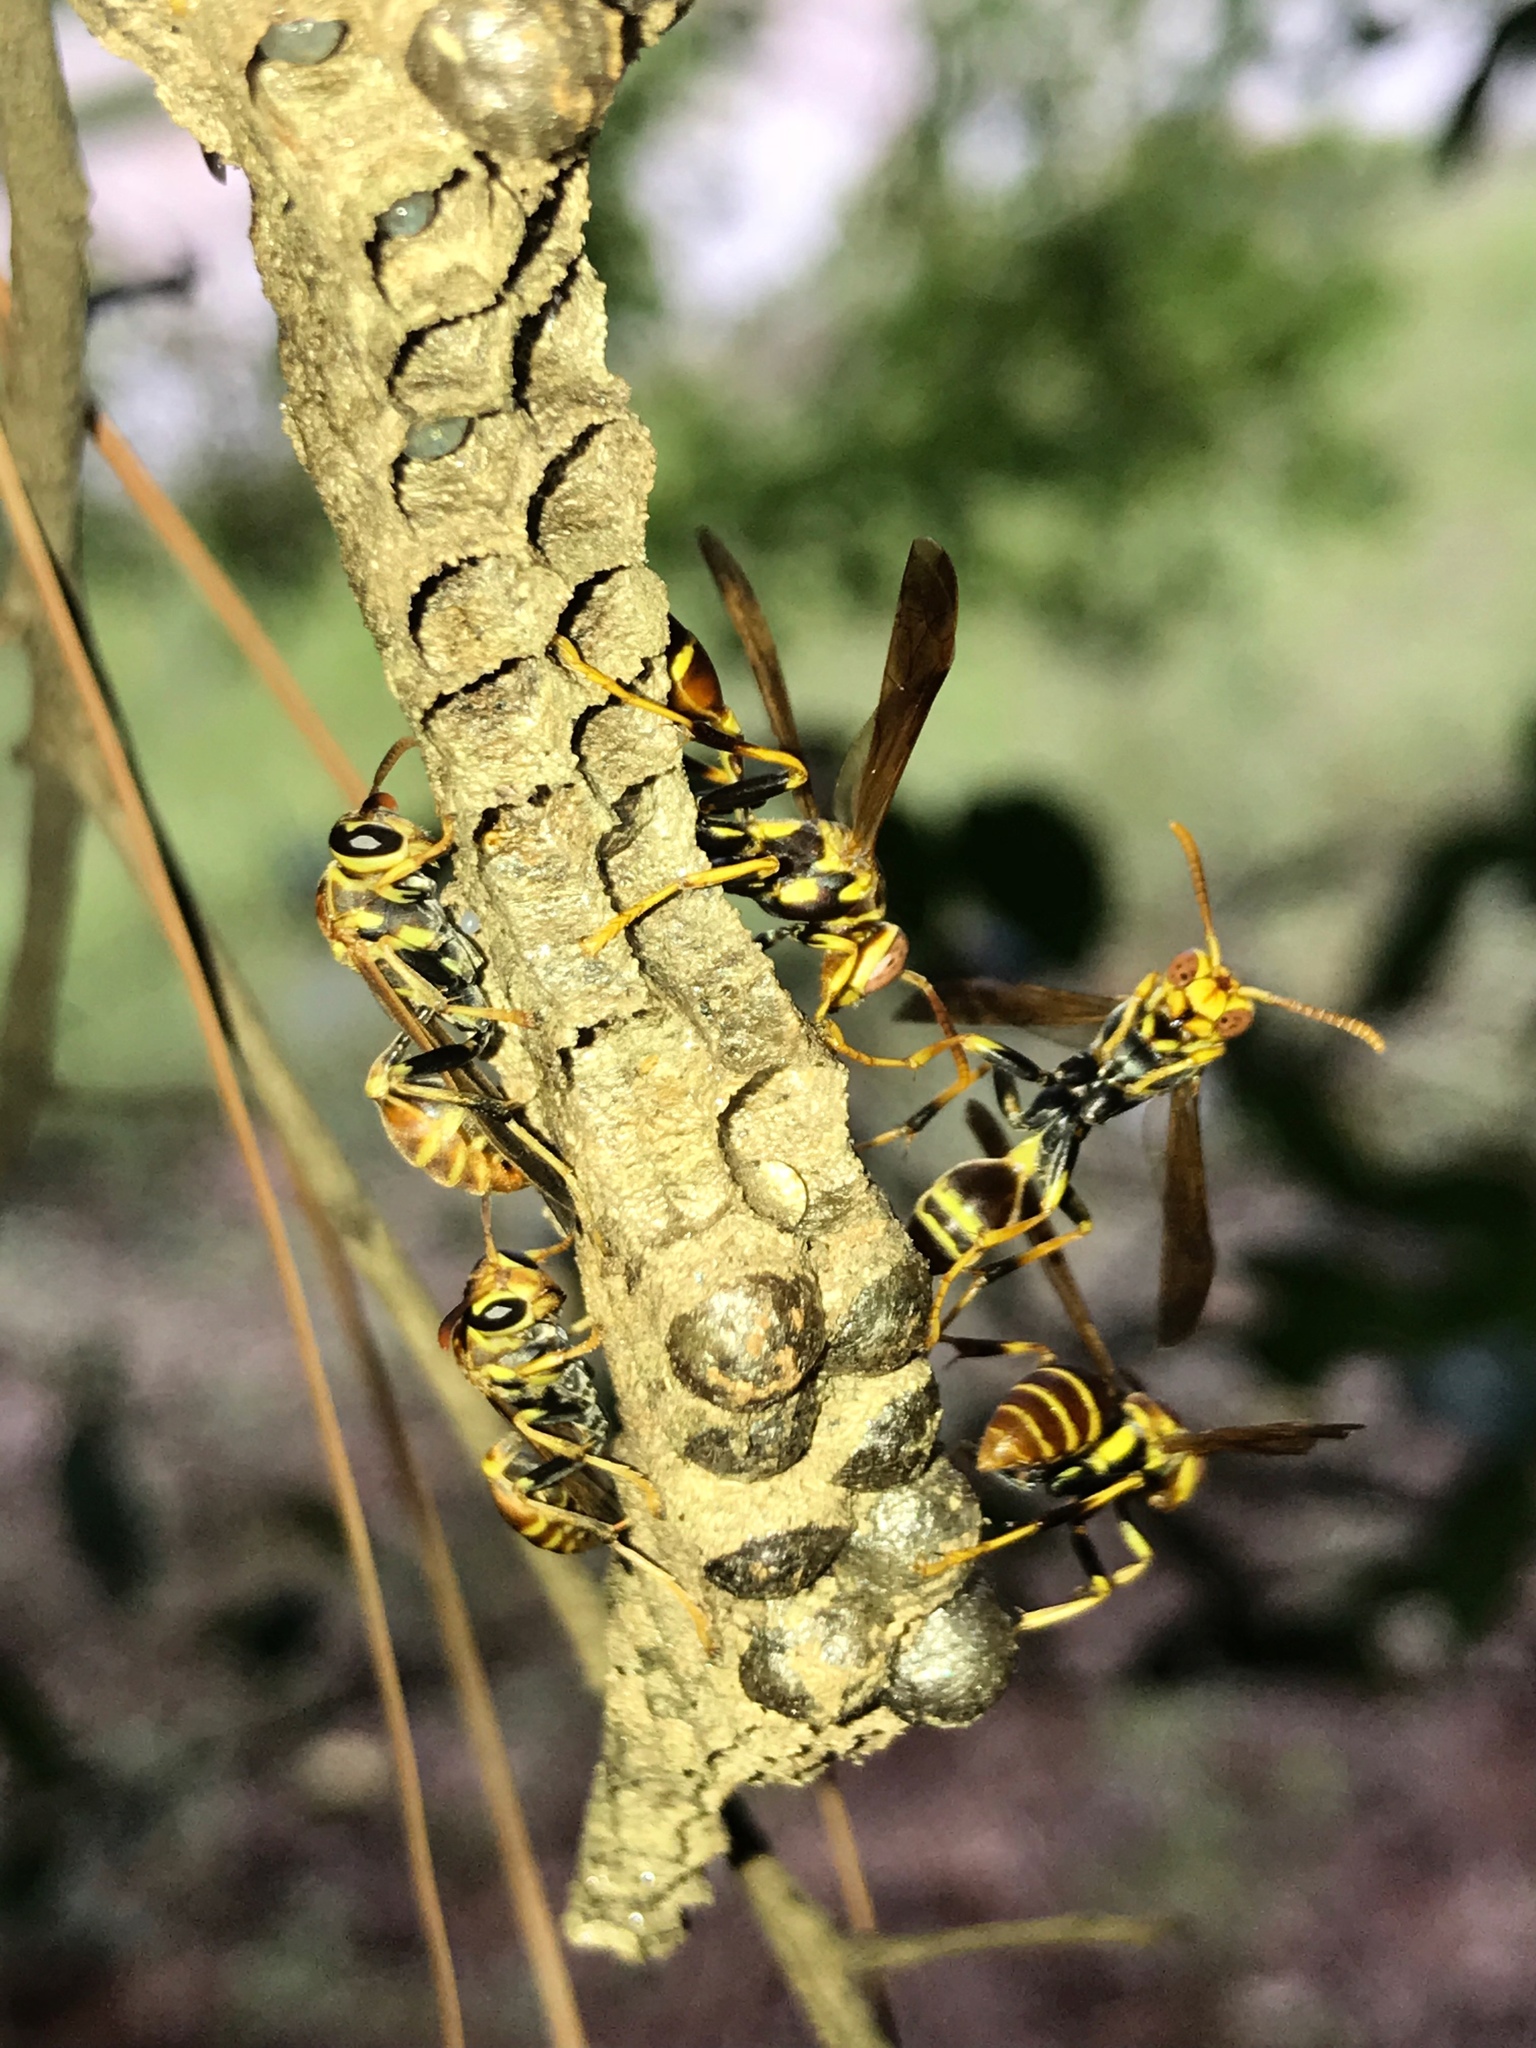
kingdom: Animalia
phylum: Arthropoda
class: Insecta
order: Hymenoptera
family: Vespidae
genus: Mischocyttarus
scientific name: Mischocyttarus mexicanus
